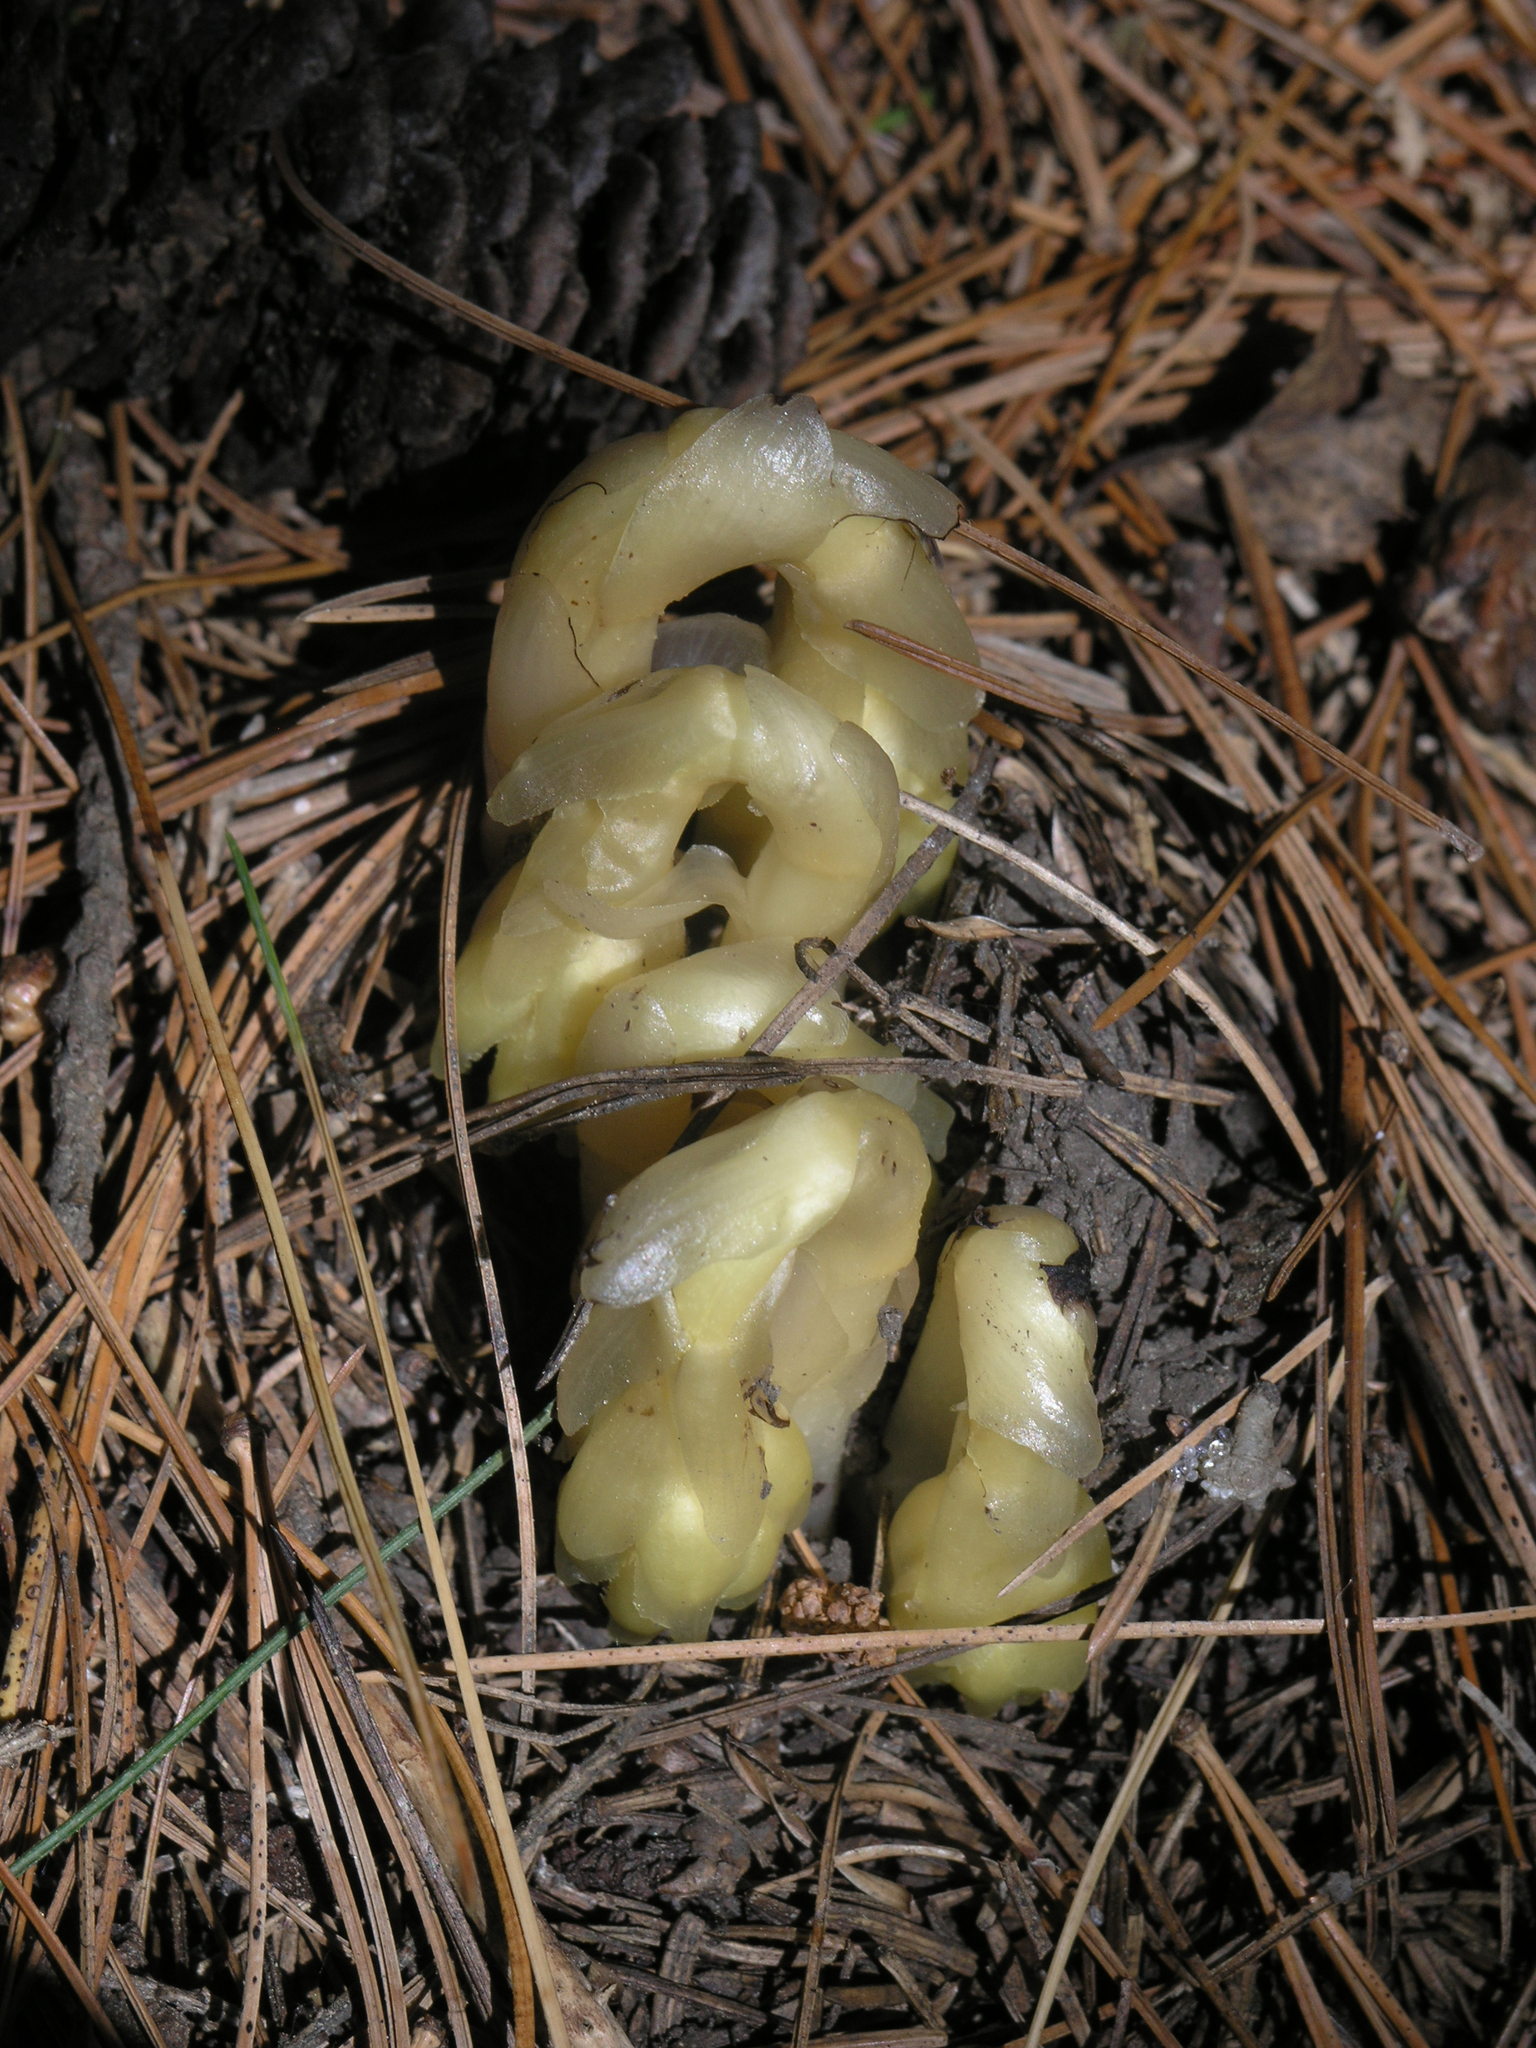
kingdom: Plantae
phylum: Tracheophyta
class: Magnoliopsida
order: Ericales
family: Ericaceae
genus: Hypopitys
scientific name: Hypopitys monotropa
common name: Yellow bird's-nest
